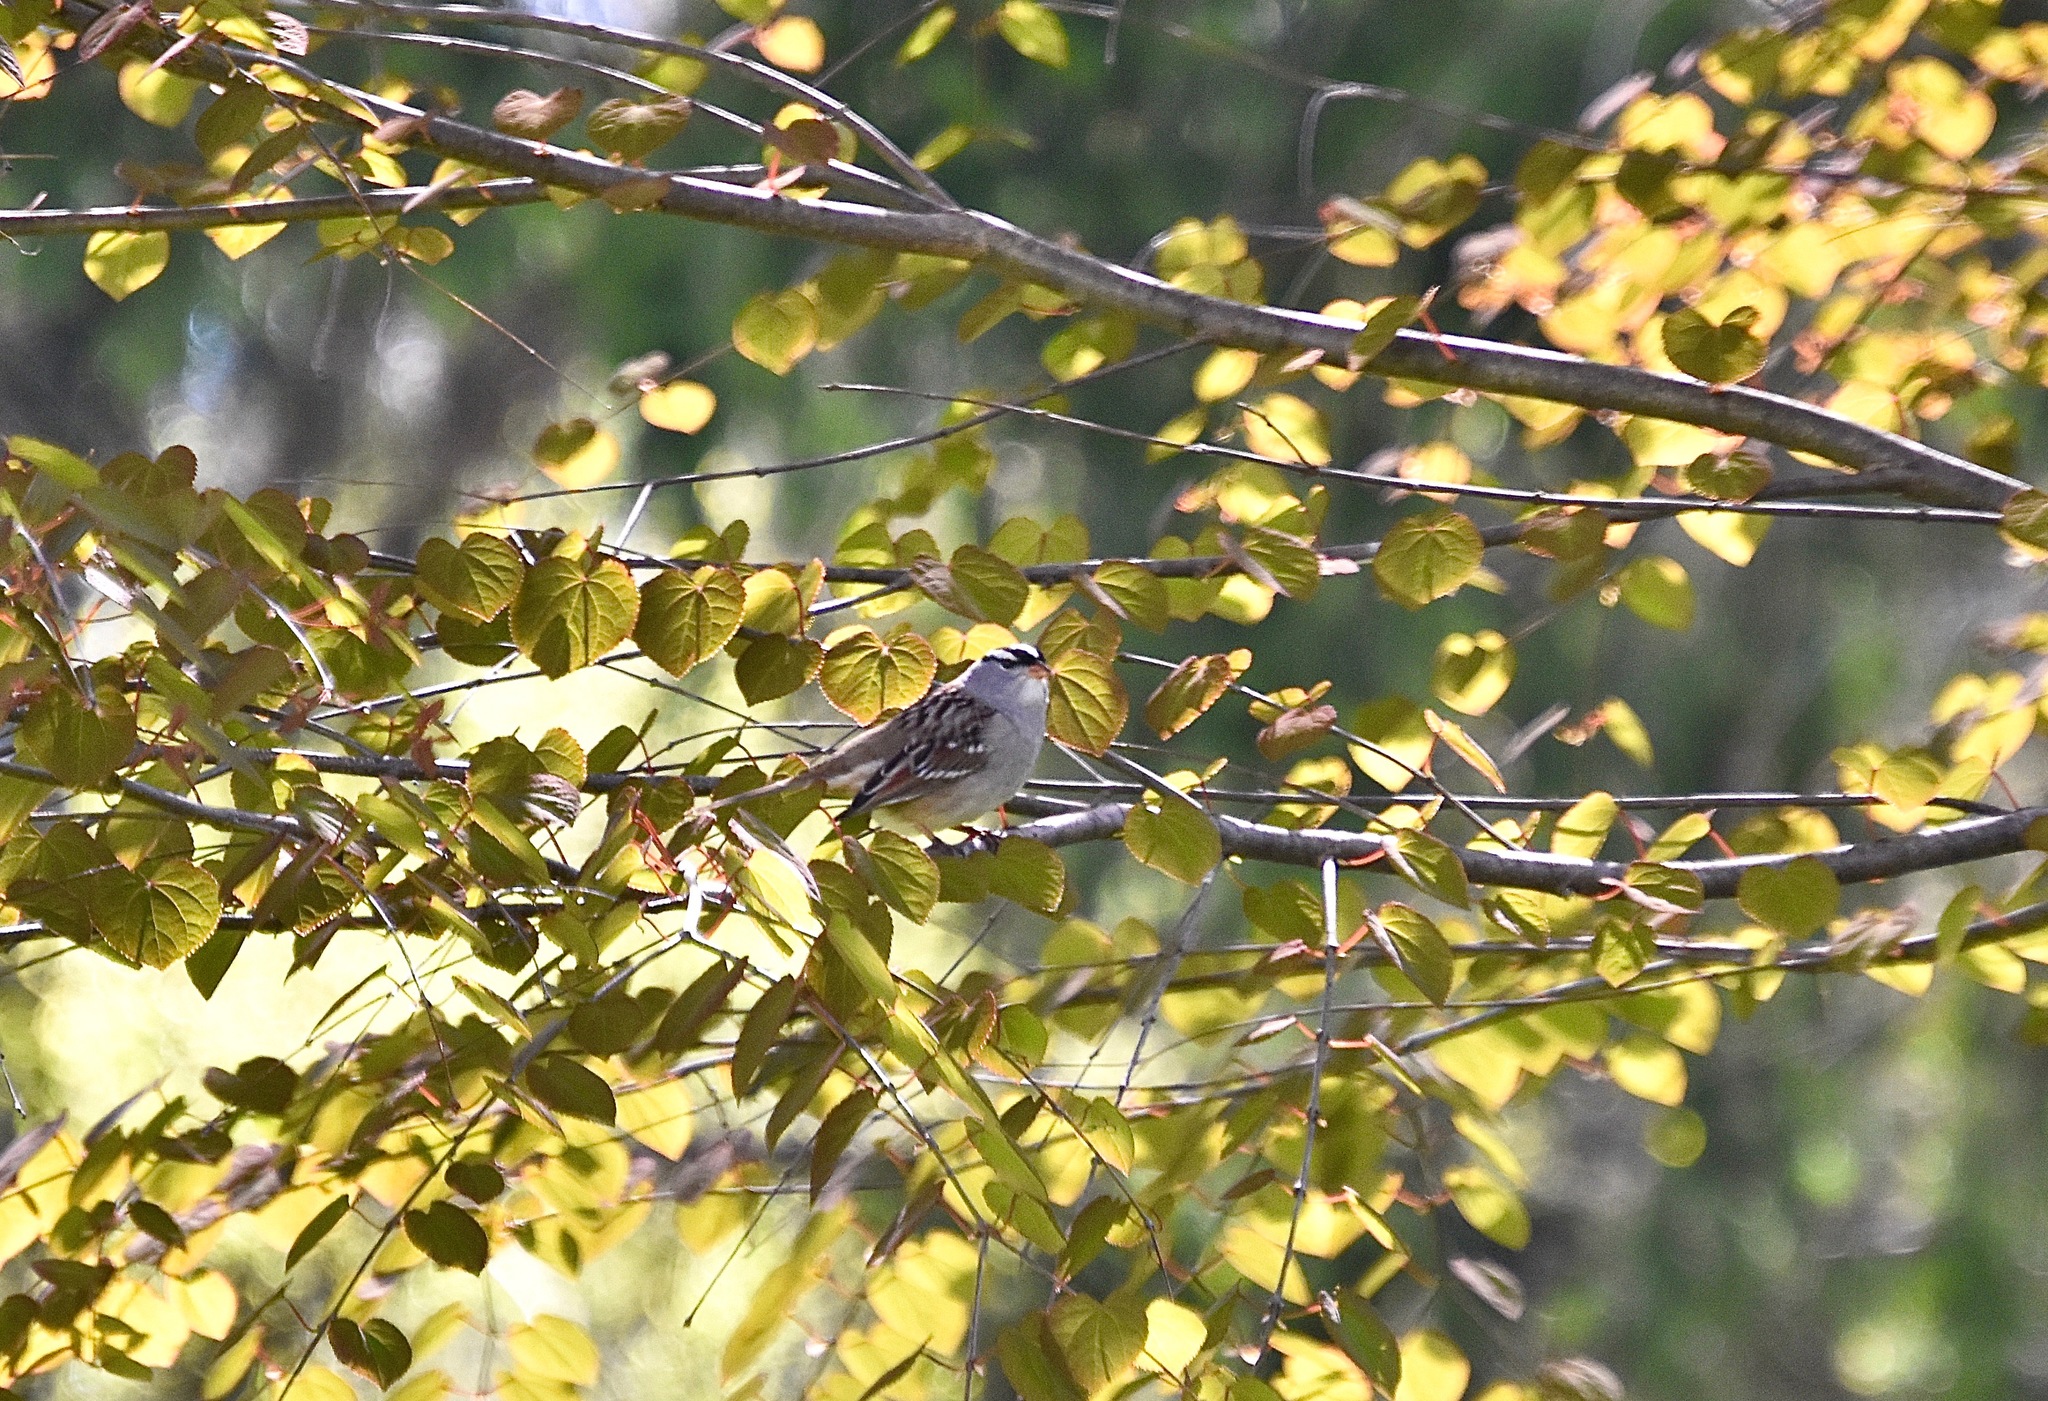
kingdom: Animalia
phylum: Chordata
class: Aves
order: Passeriformes
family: Passerellidae
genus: Zonotrichia
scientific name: Zonotrichia leucophrys
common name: White-crowned sparrow
